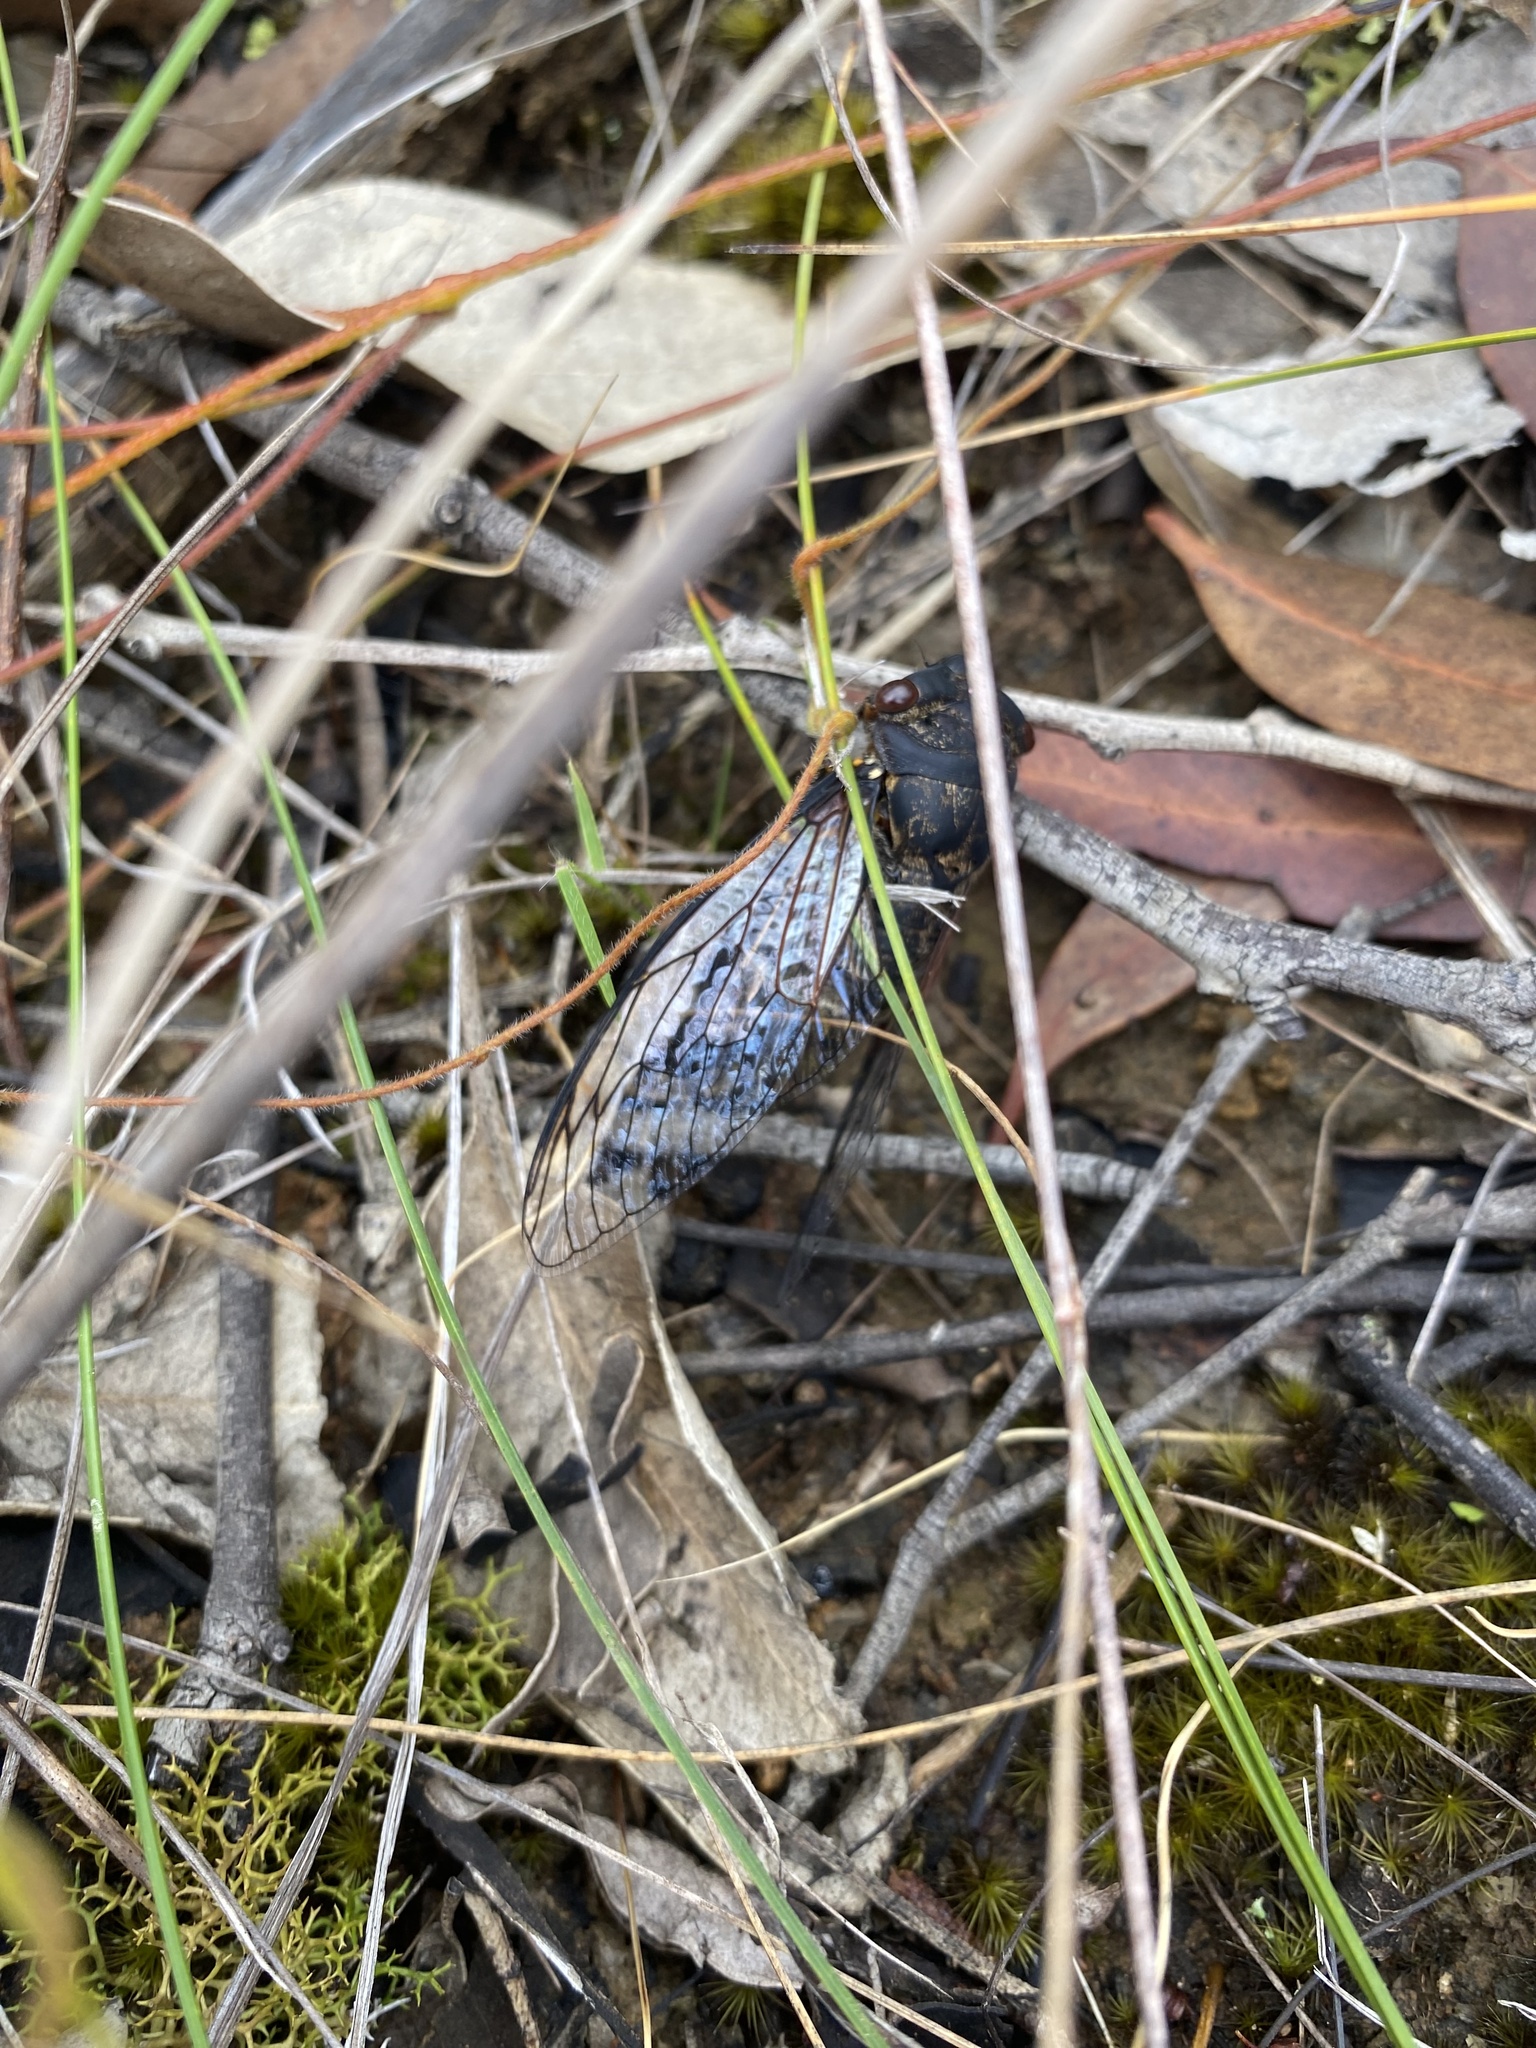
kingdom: Animalia
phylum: Arthropoda
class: Insecta
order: Hemiptera
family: Cicadidae
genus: Psaltoda
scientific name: Psaltoda plaga
